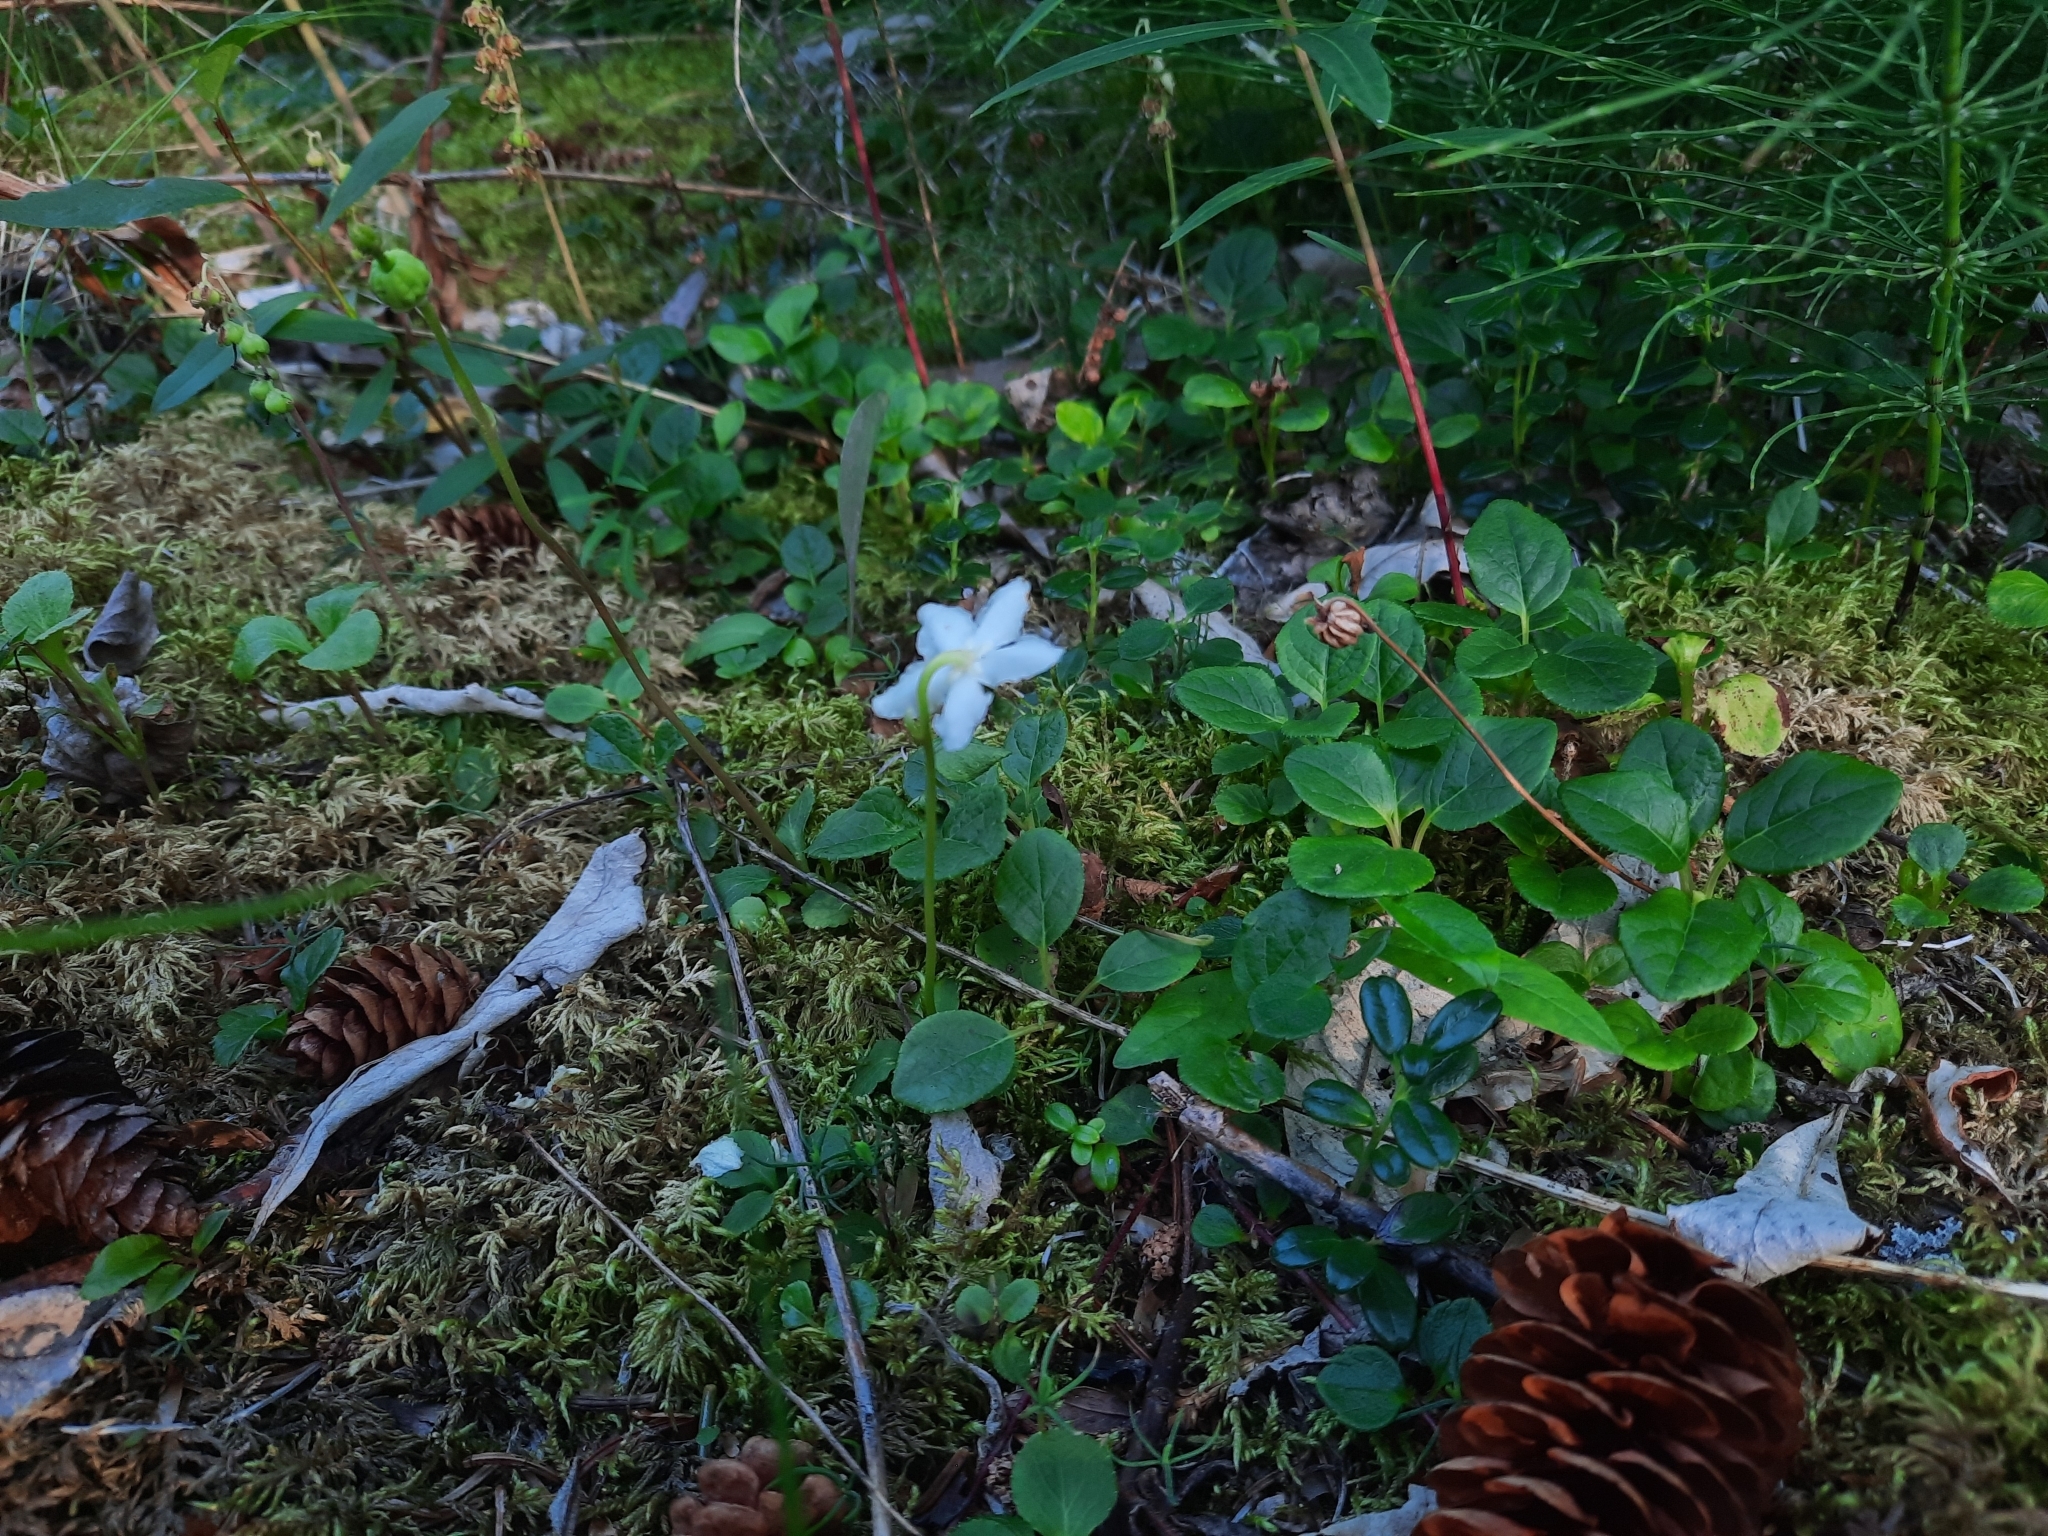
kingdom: Plantae
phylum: Tracheophyta
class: Magnoliopsida
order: Ericales
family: Ericaceae
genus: Moneses
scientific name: Moneses uniflora
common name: One-flowered wintergreen
